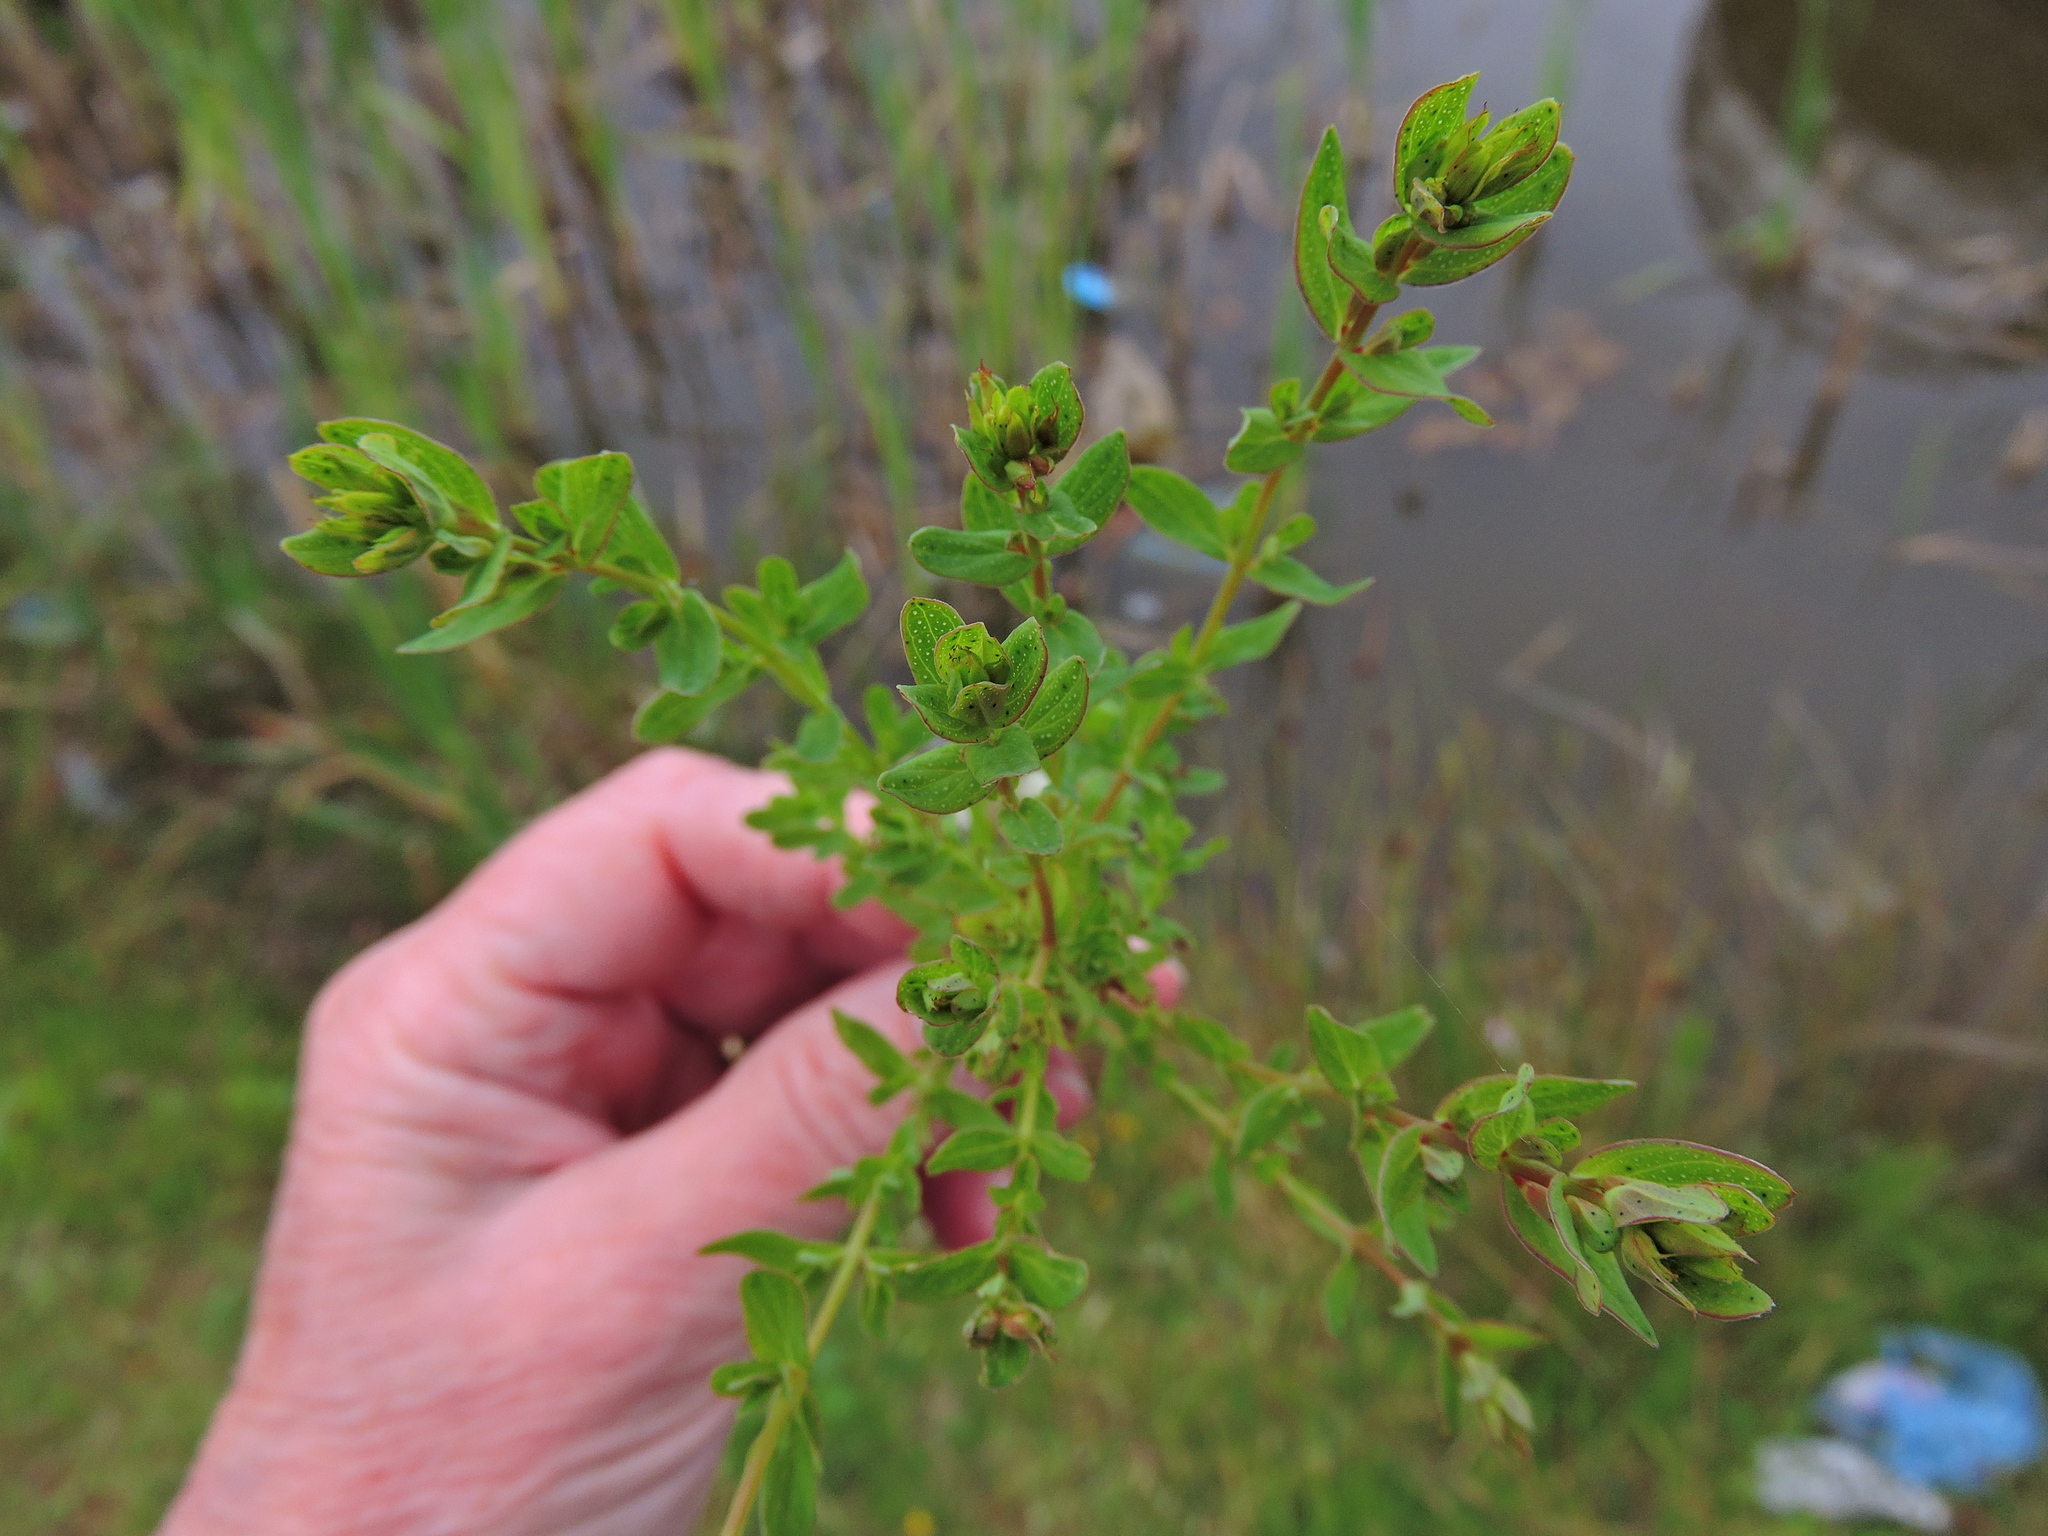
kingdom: Plantae
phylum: Tracheophyta
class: Magnoliopsida
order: Malpighiales
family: Hypericaceae
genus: Hypericum
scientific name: Hypericum perforatum
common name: Common st. johnswort
